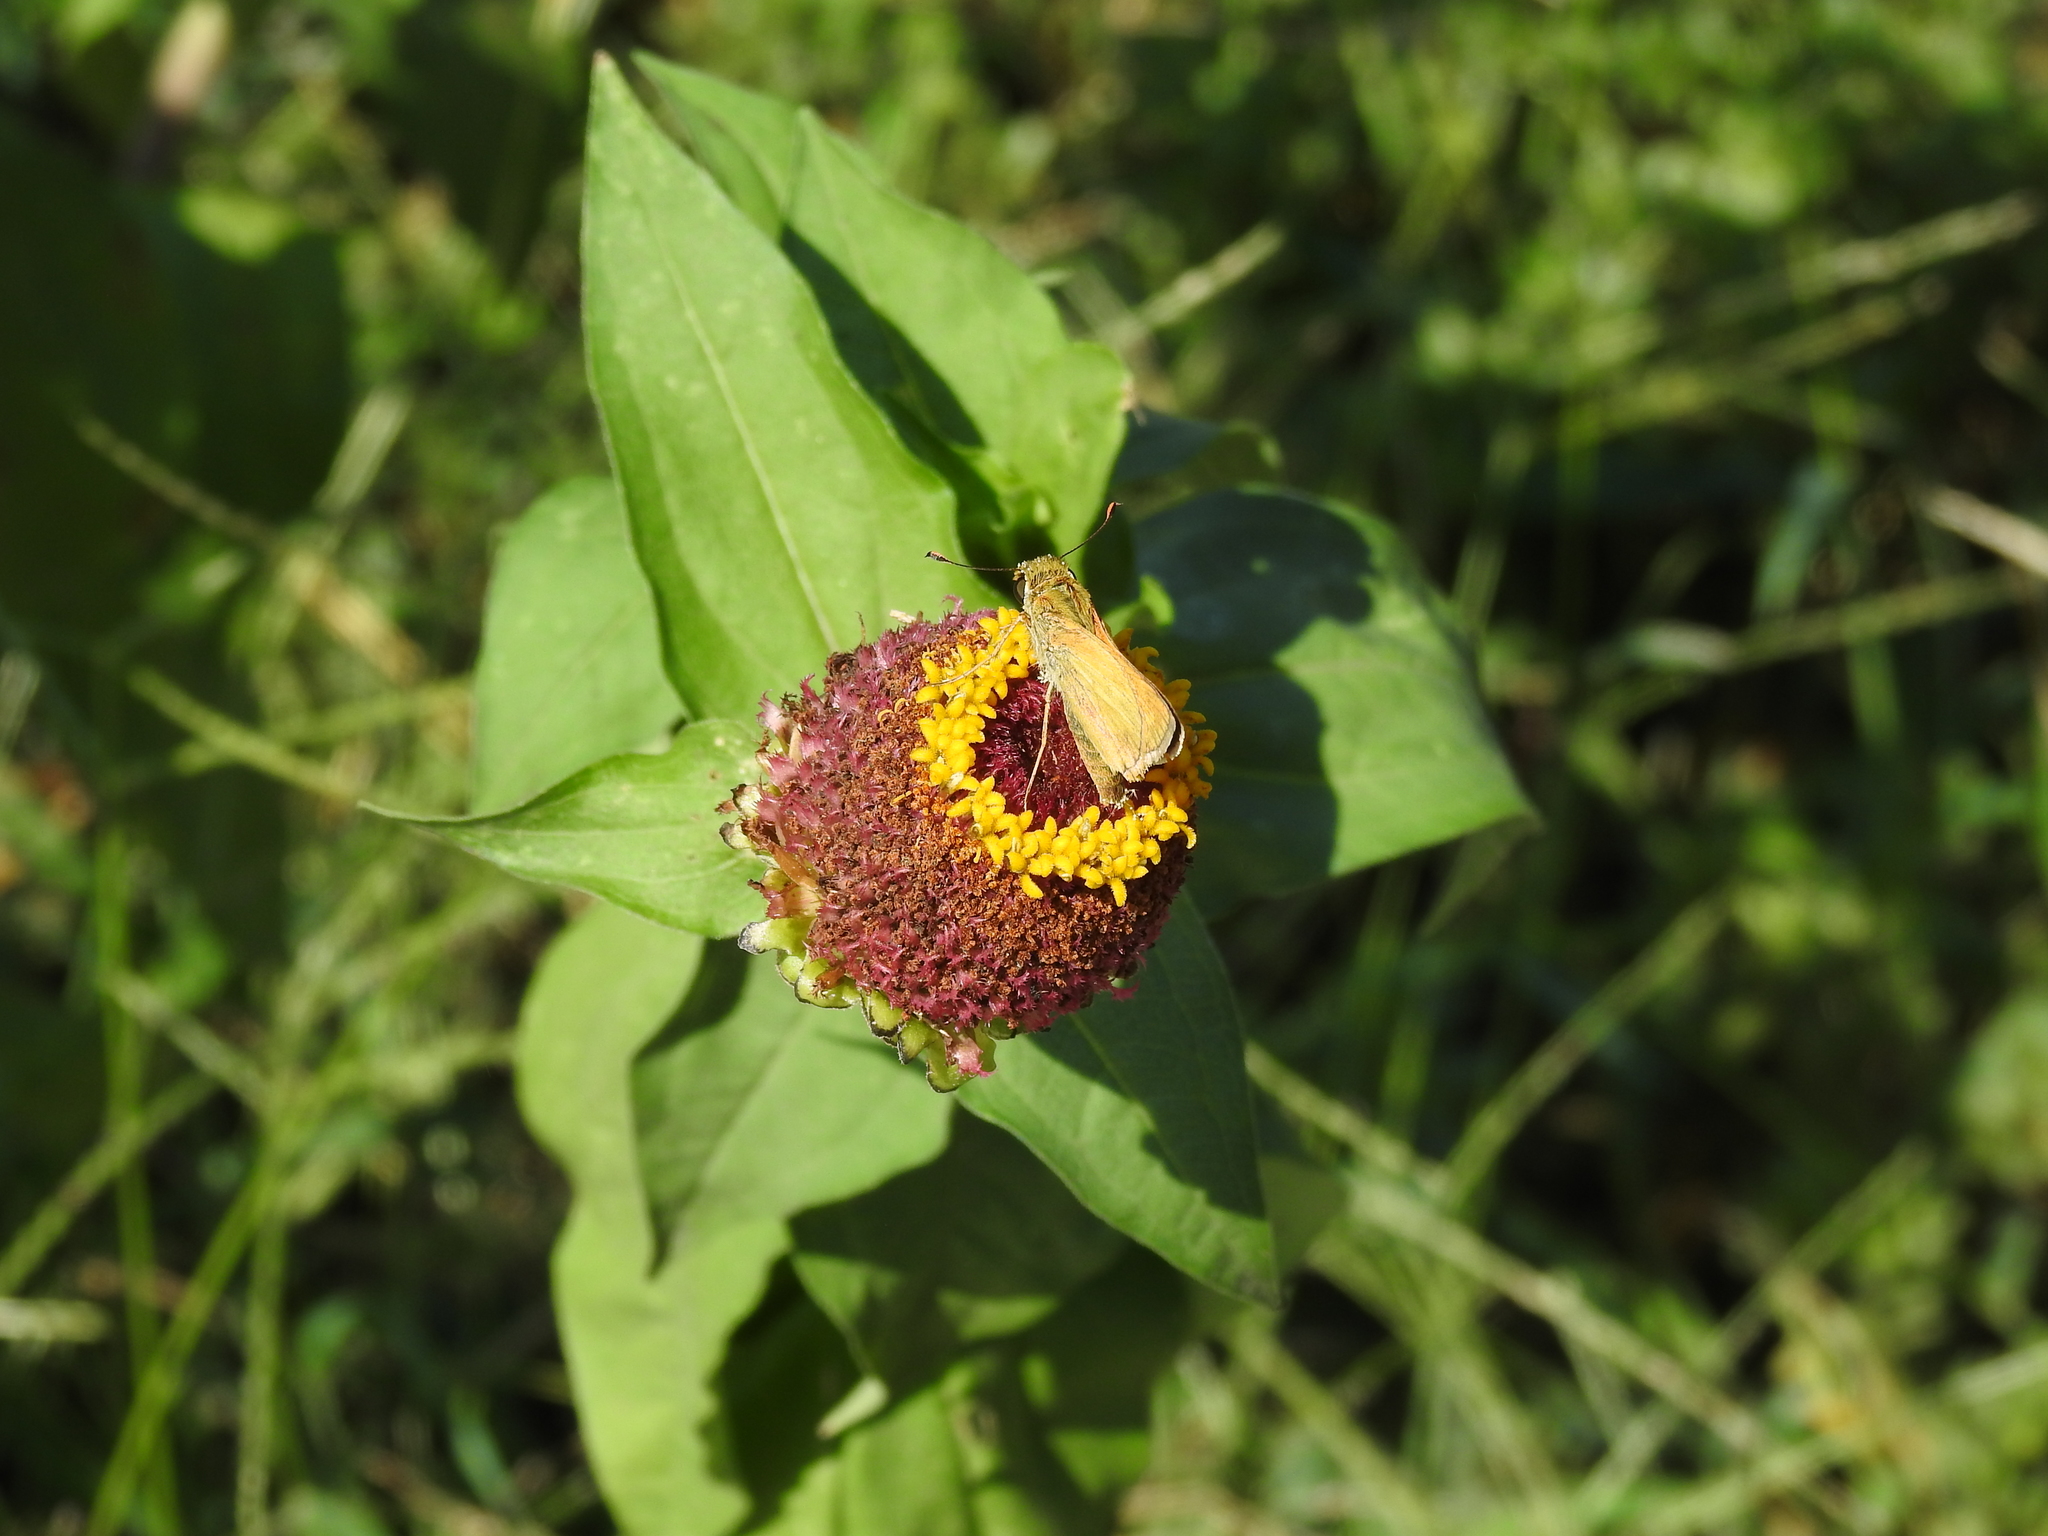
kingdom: Animalia
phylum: Arthropoda
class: Insecta
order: Lepidoptera
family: Hesperiidae
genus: Atalopedes
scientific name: Atalopedes
